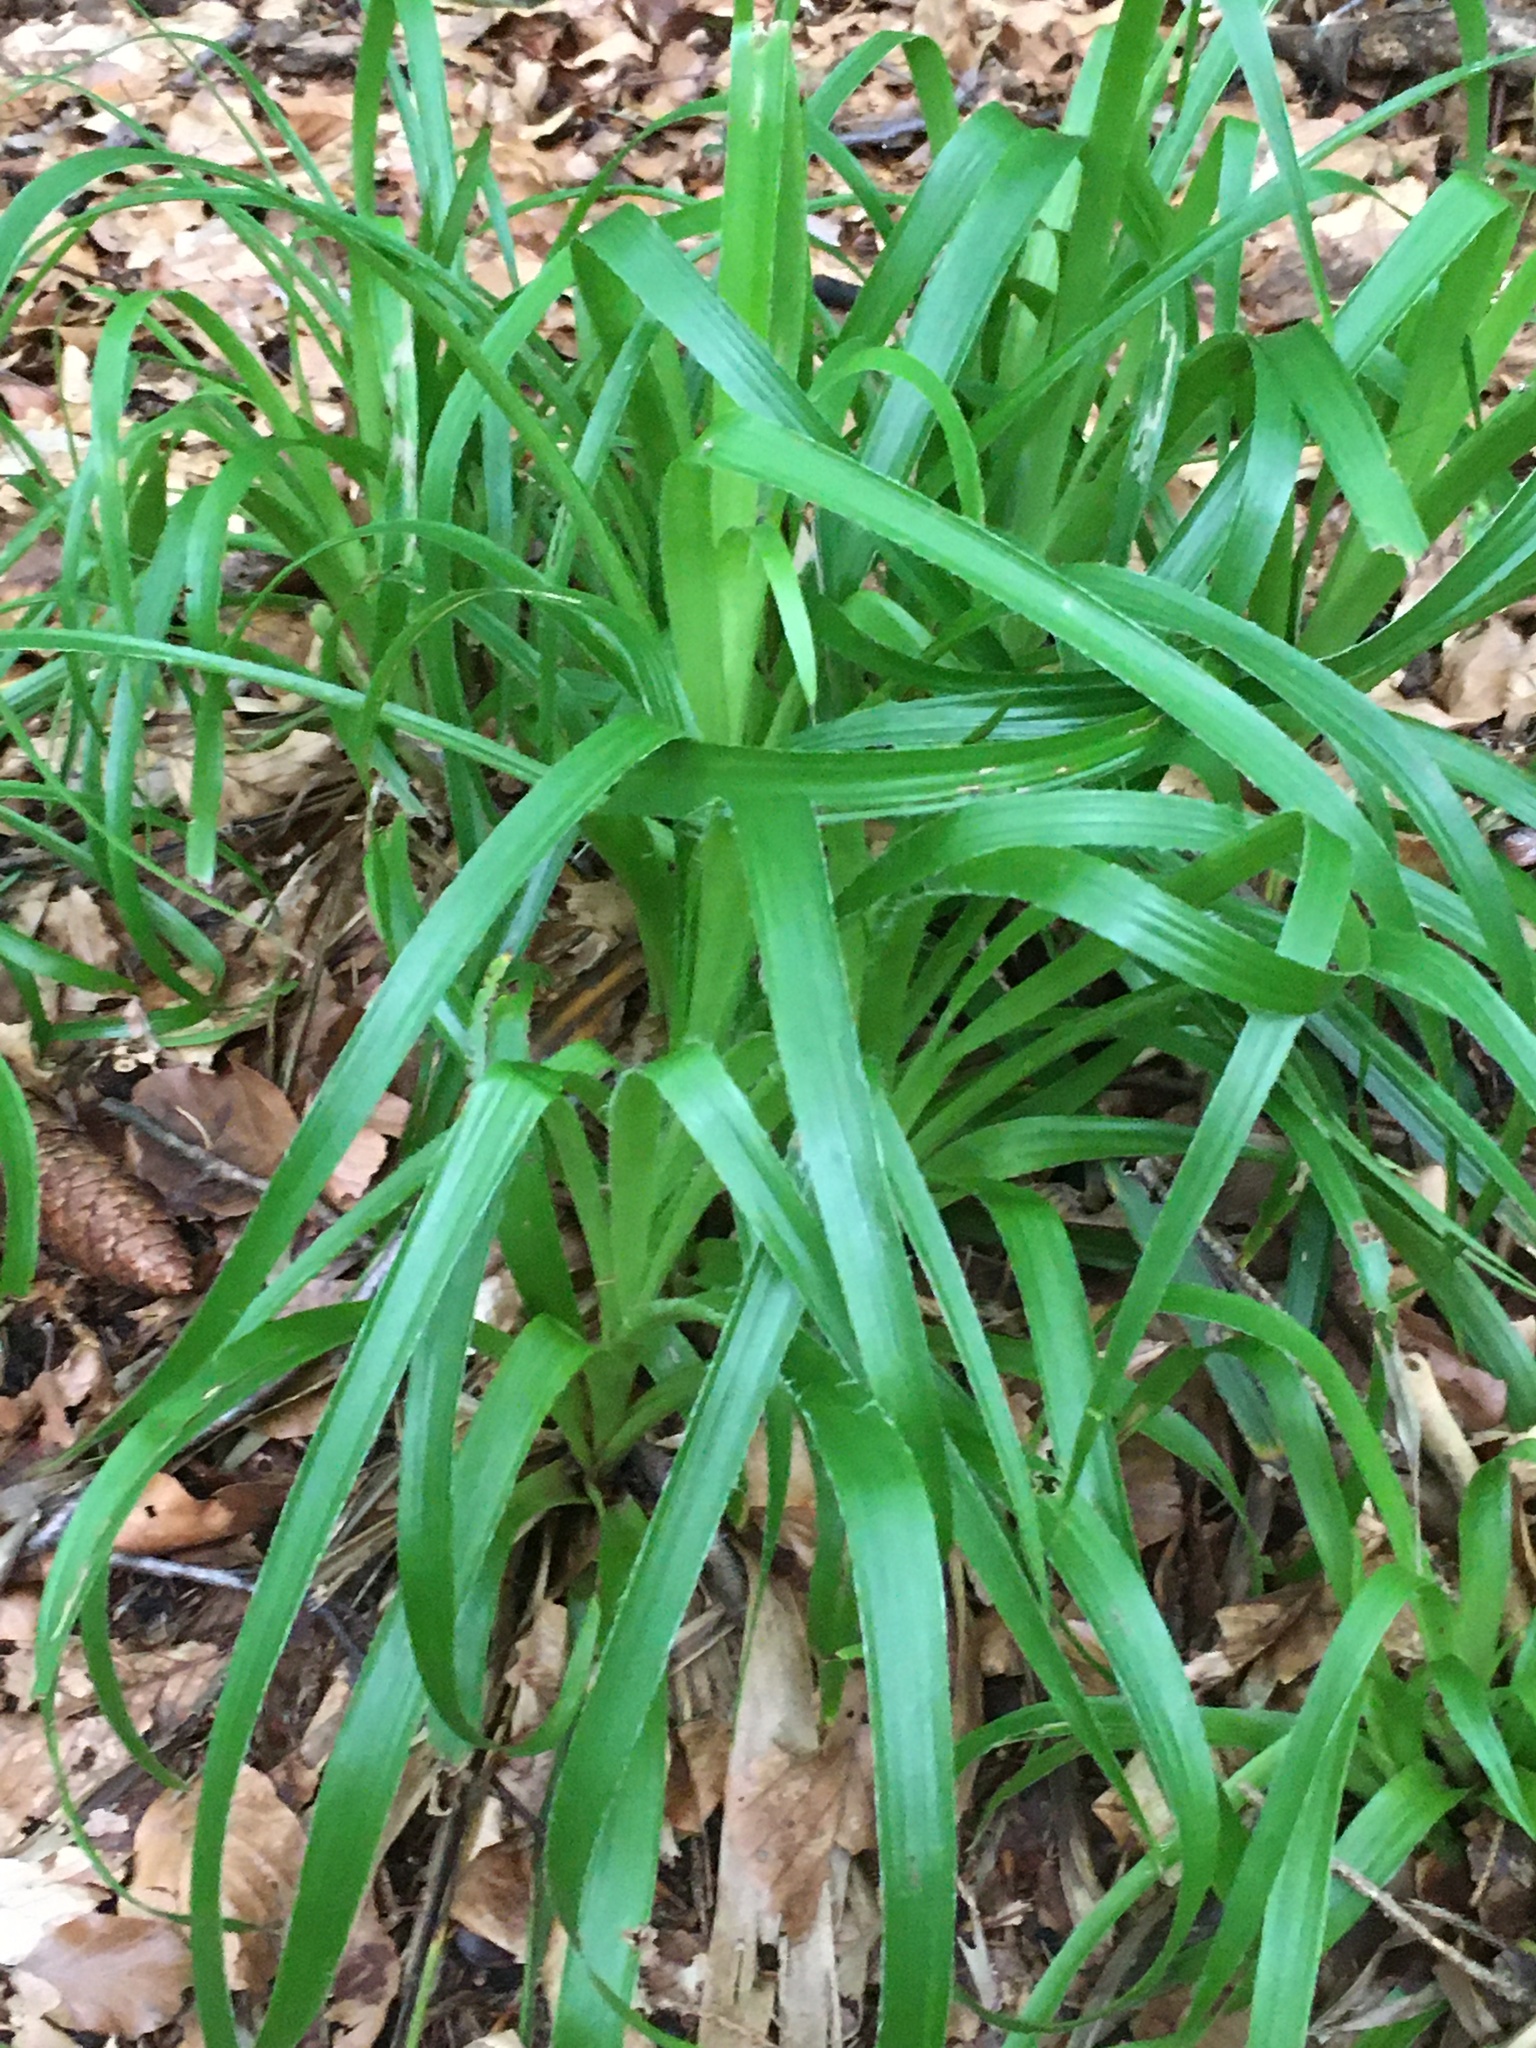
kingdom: Plantae
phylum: Tracheophyta
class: Liliopsida
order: Poales
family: Juncaceae
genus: Luzula
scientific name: Luzula sylvatica
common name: Great wood-rush
